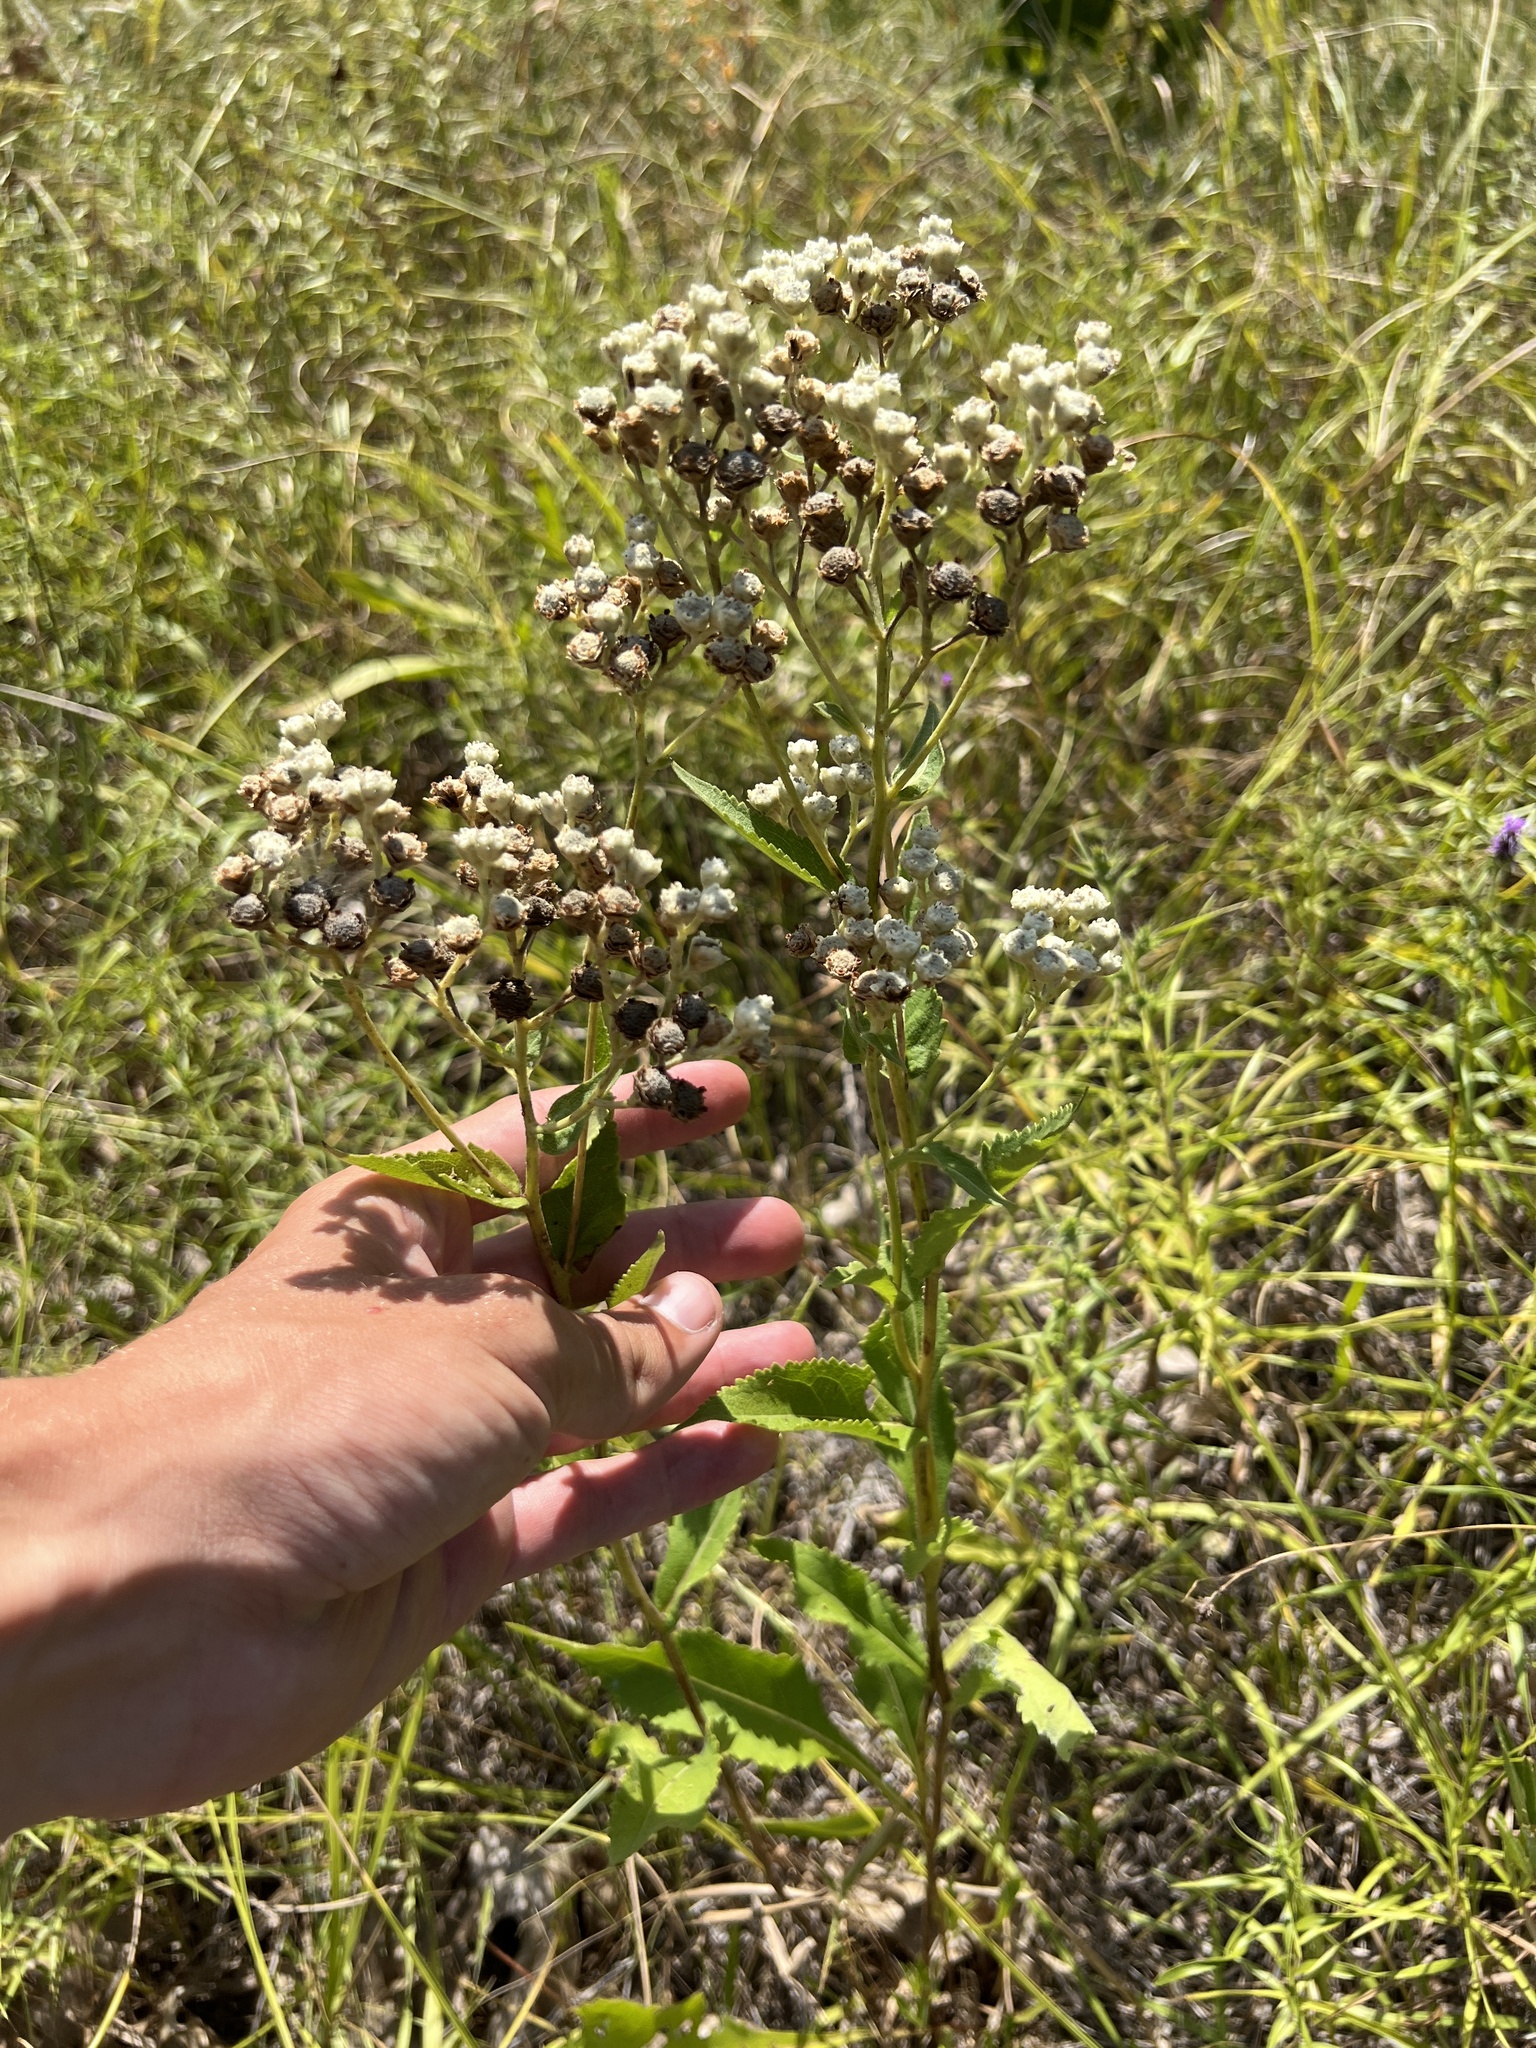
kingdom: Plantae
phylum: Tracheophyta
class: Magnoliopsida
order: Asterales
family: Asteraceae
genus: Parthenium
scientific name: Parthenium integrifolium
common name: American feverfew
